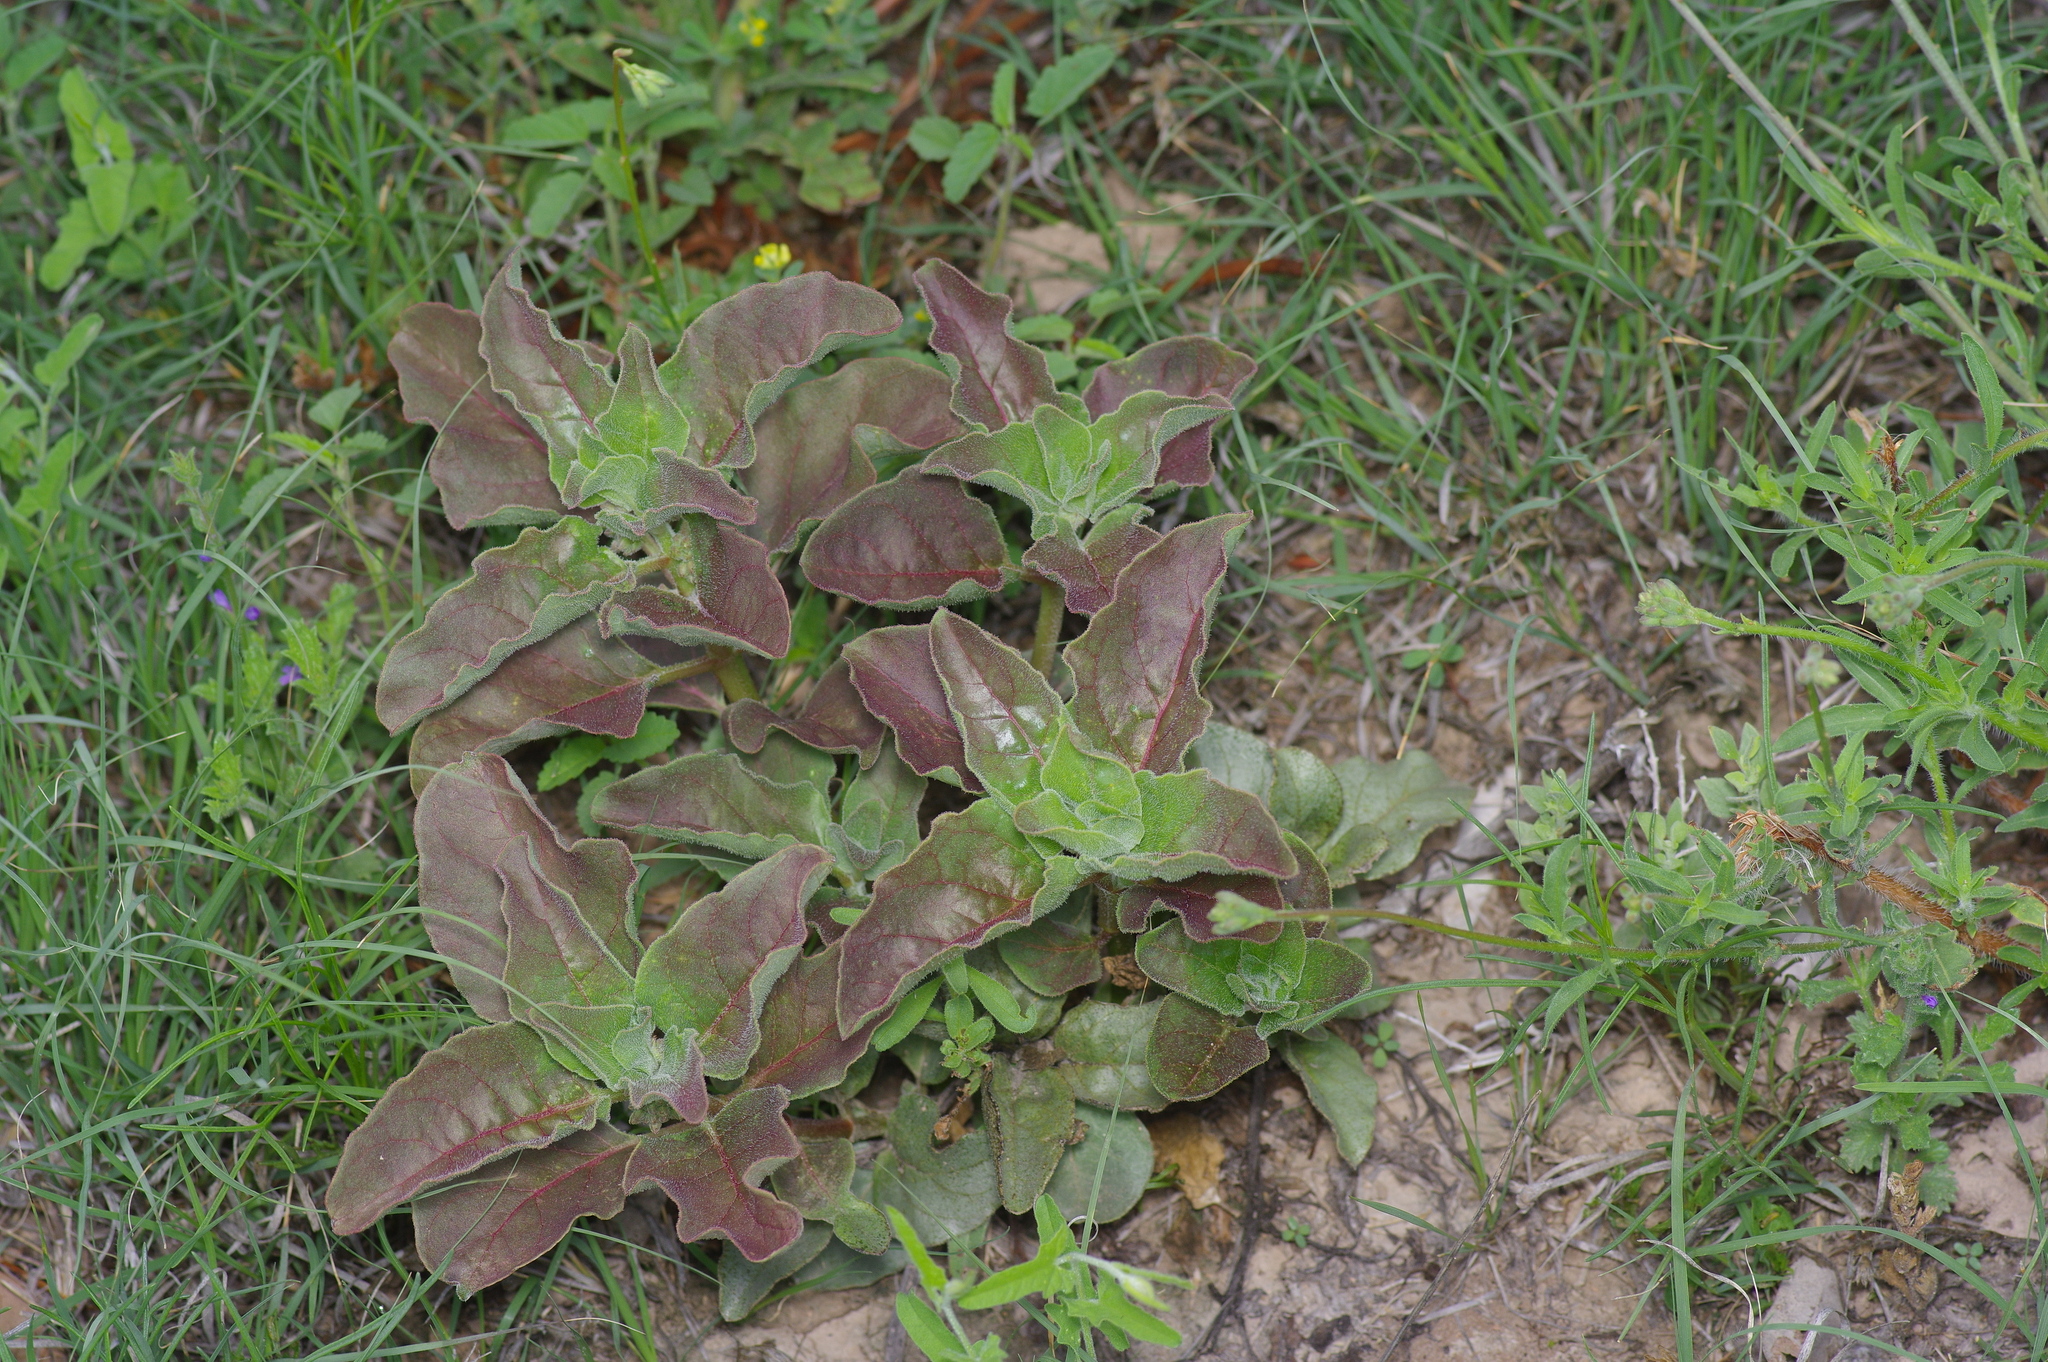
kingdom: Plantae
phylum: Tracheophyta
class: Magnoliopsida
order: Gentianales
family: Apocynaceae
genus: Asclepias
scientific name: Asclepias oenotheroides
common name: Zizotes milkweed
